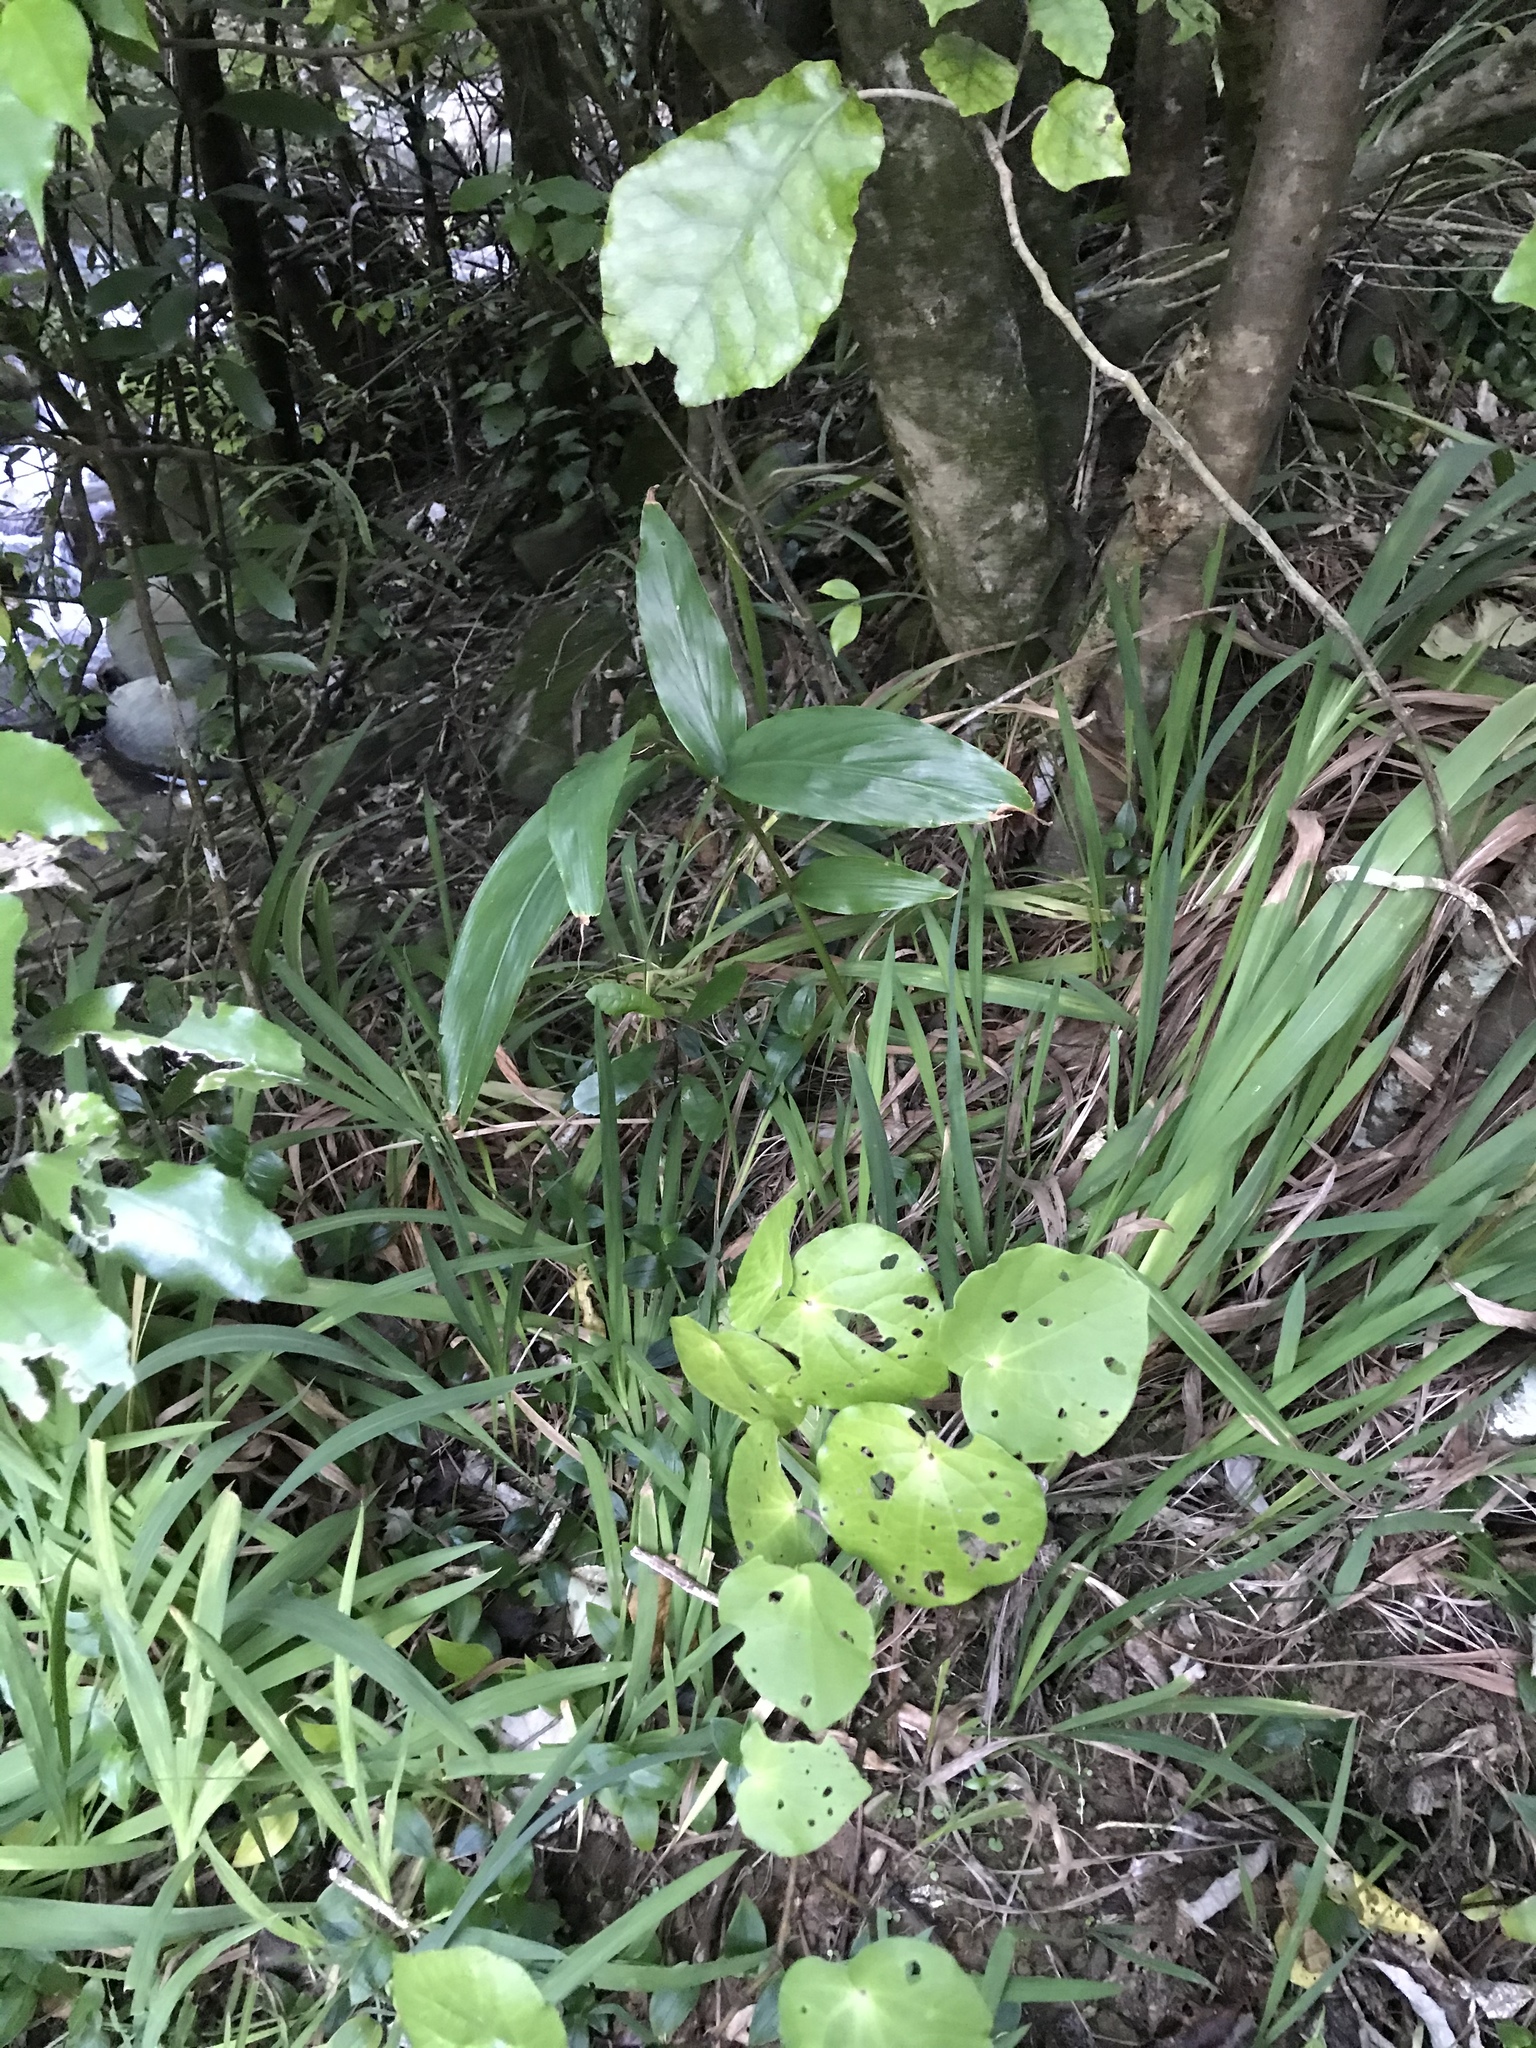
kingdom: Plantae
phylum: Tracheophyta
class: Magnoliopsida
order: Piperales
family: Piperaceae
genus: Macropiper
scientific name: Macropiper excelsum
